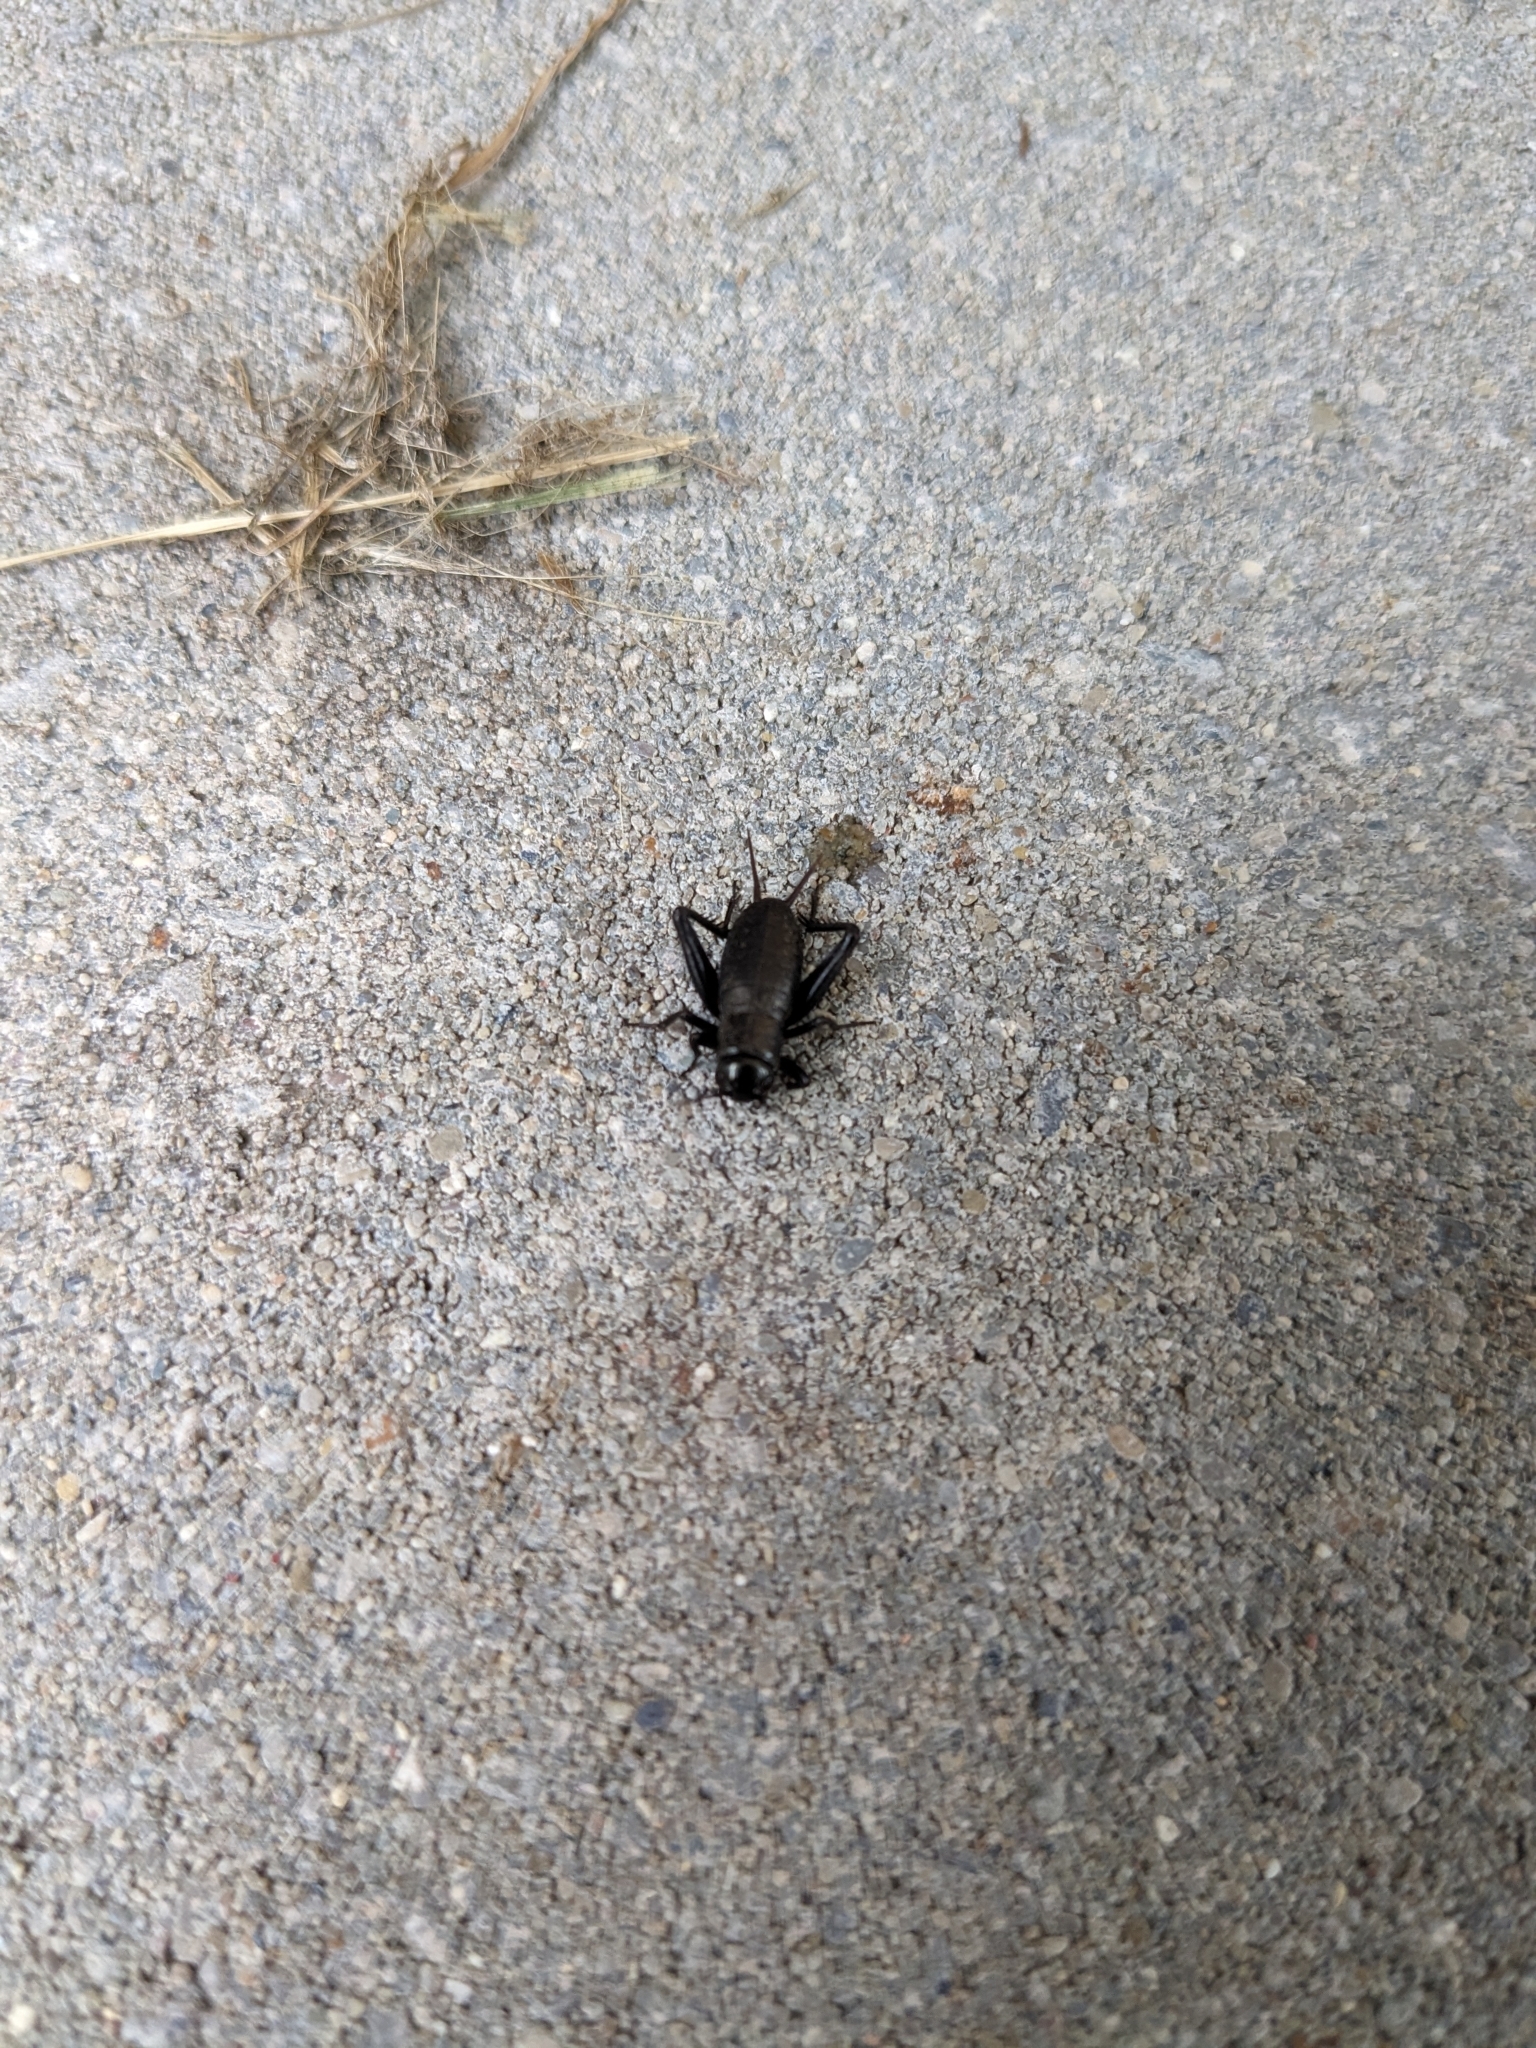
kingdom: Animalia
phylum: Arthropoda
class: Insecta
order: Orthoptera
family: Gryllidae
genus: Gryllus
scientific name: Gryllus pennsylvanicus
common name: Fall field cricket
